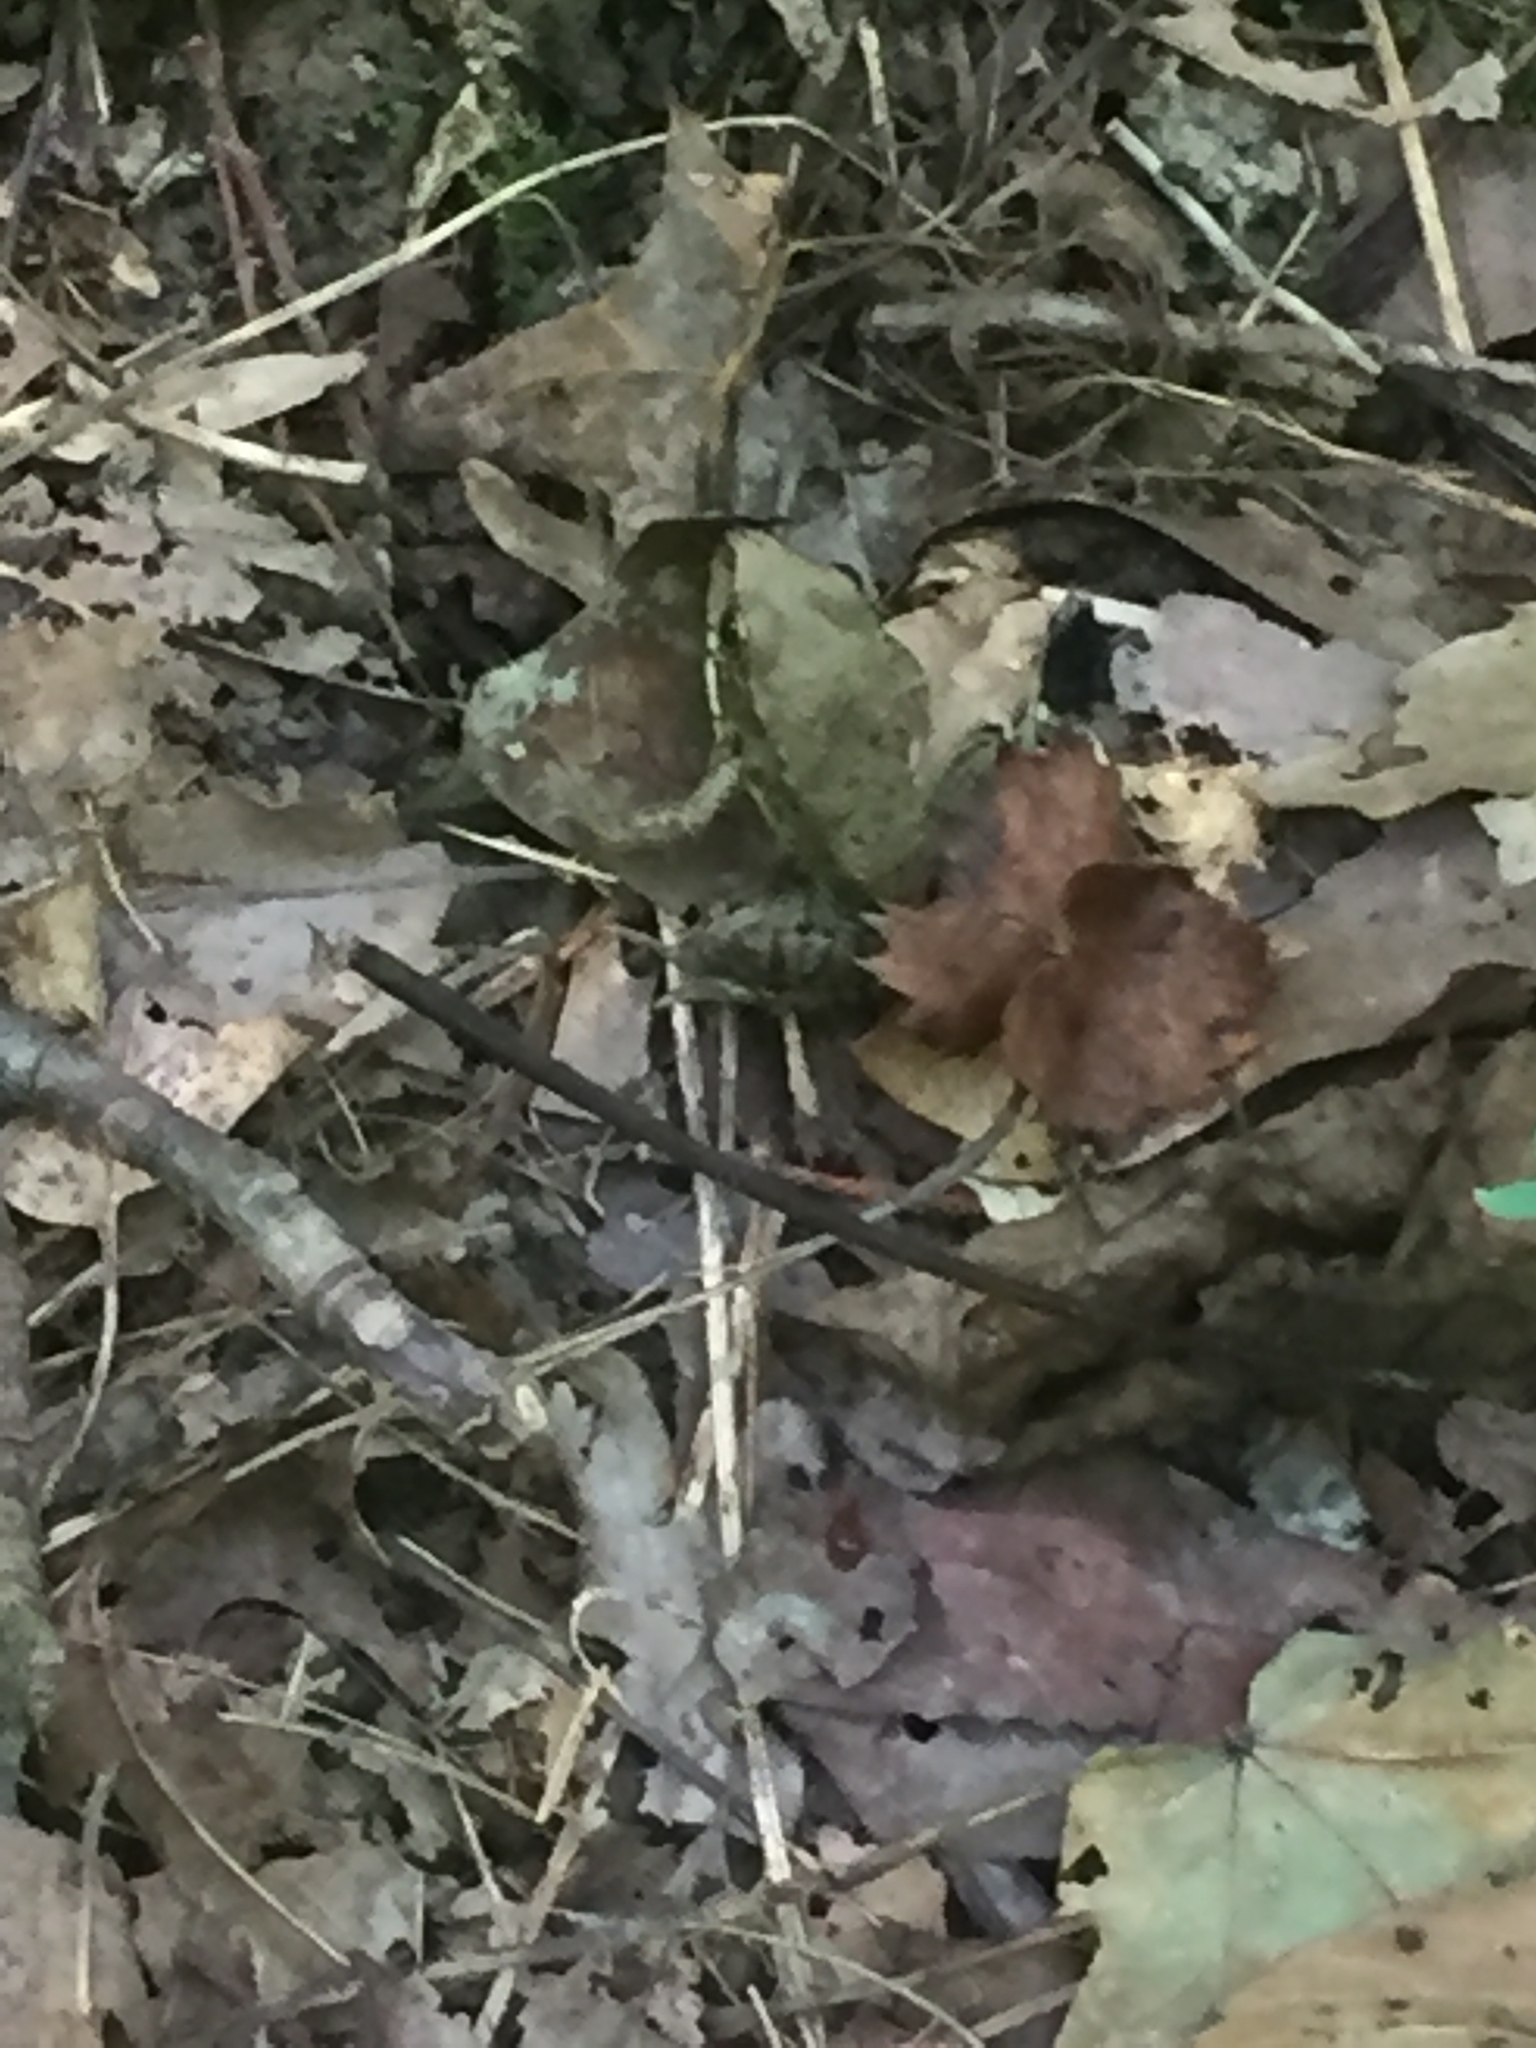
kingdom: Animalia
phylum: Chordata
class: Amphibia
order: Anura
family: Ranidae
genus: Lithobates
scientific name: Lithobates clamitans
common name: Green frog
